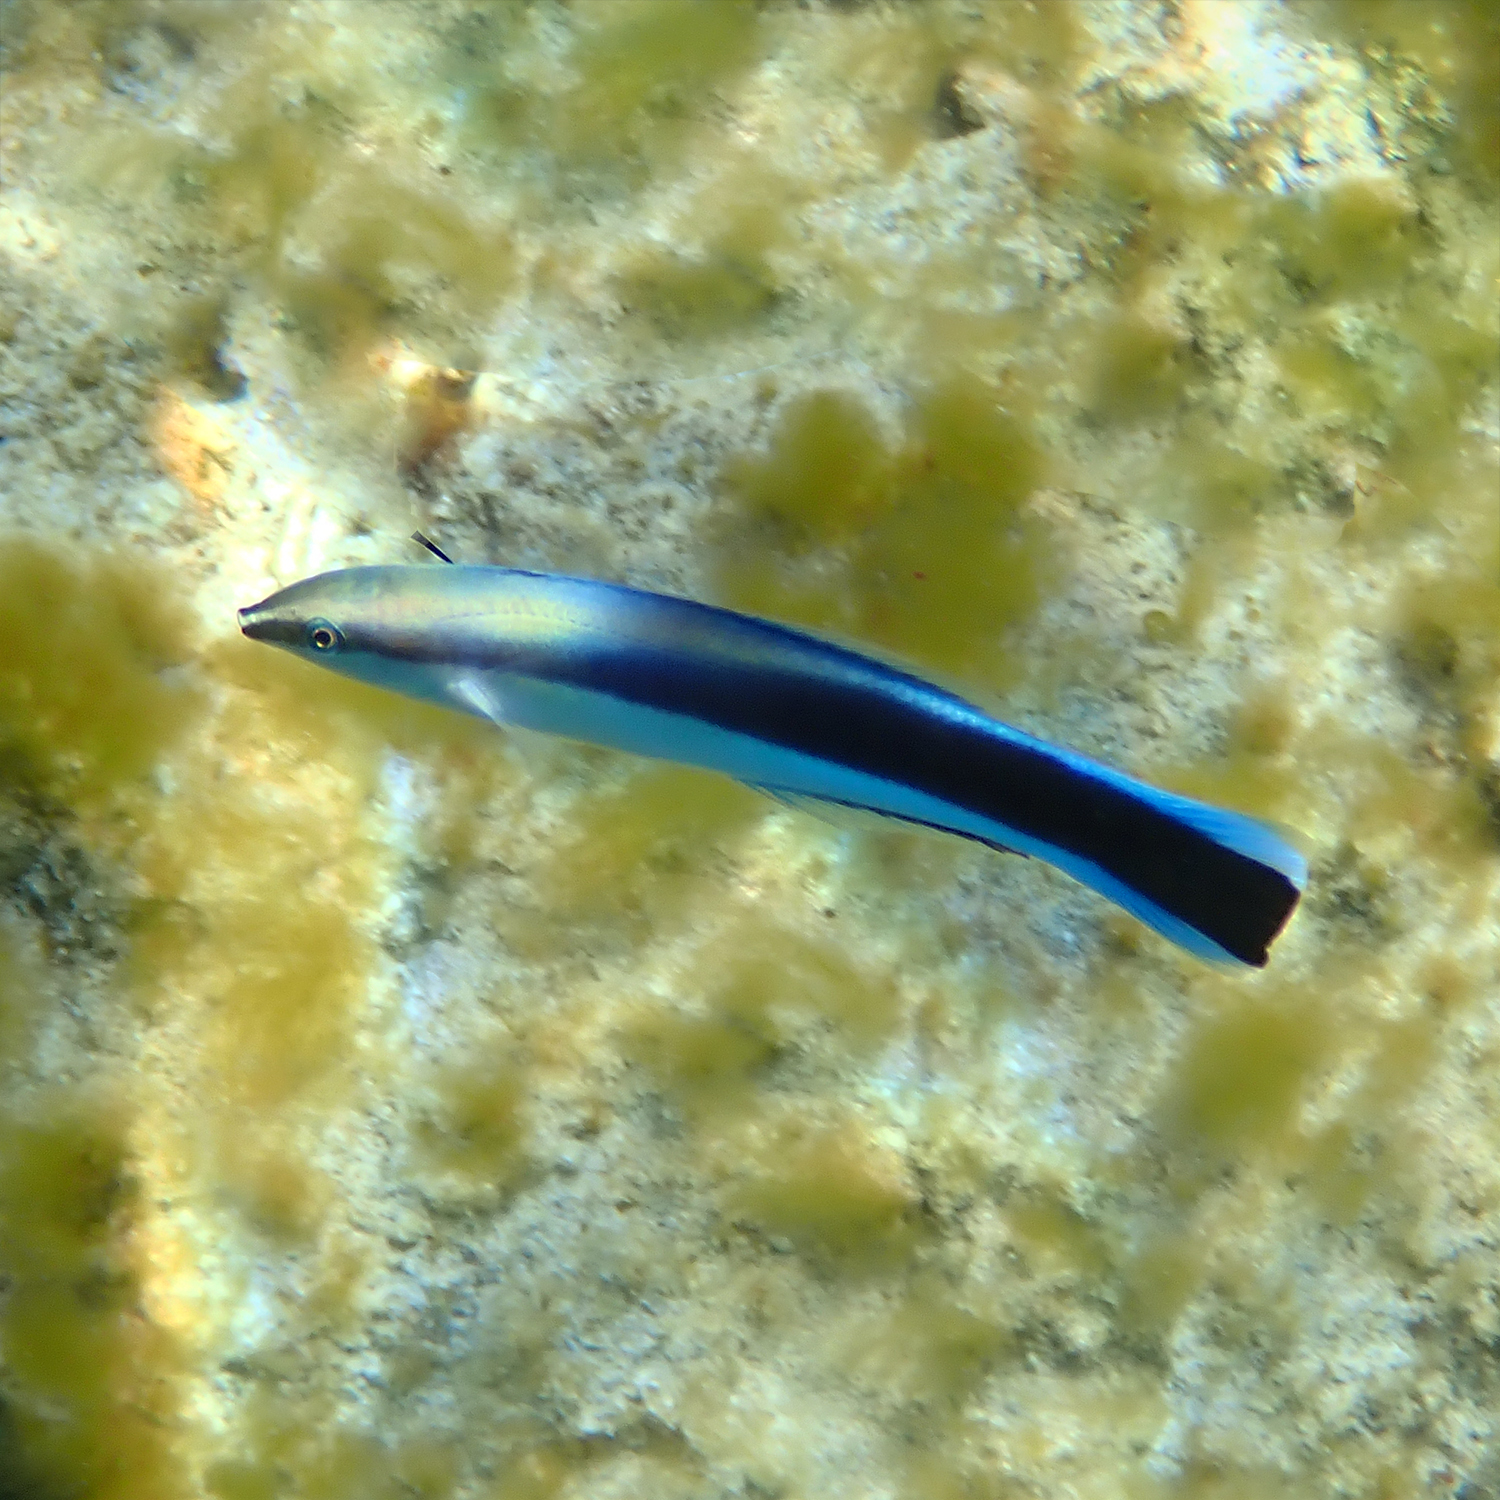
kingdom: Animalia
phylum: Chordata
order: Perciformes
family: Labridae
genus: Labroides
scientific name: Labroides dimidiatus
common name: Blue diesel wrasse
